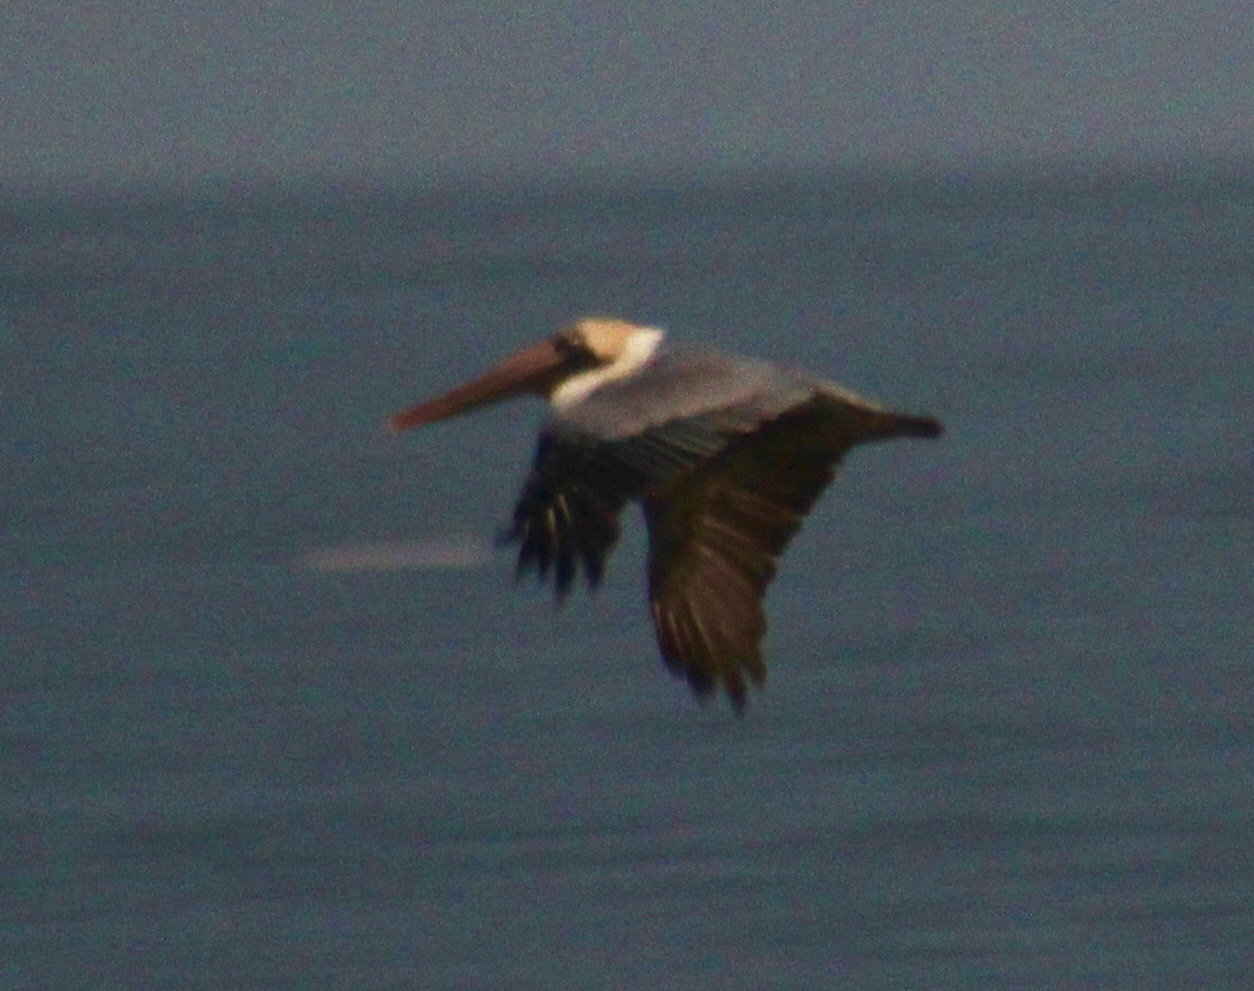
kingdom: Animalia
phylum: Chordata
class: Aves
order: Pelecaniformes
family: Pelecanidae
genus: Pelecanus
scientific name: Pelecanus occidentalis
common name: Brown pelican
